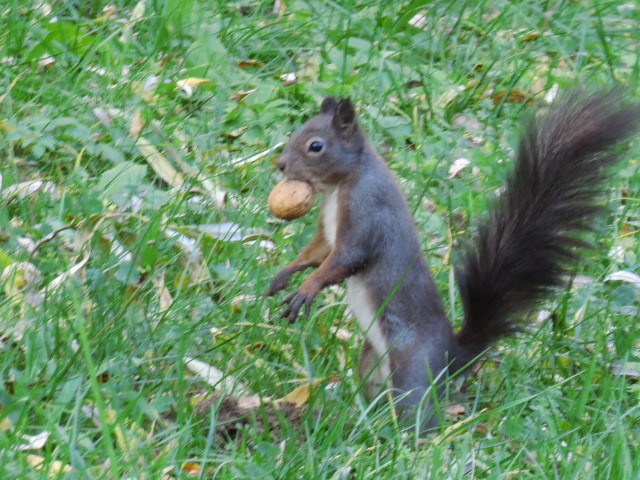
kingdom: Animalia
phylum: Chordata
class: Mammalia
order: Rodentia
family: Sciuridae
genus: Sciurus
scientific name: Sciurus vulgaris
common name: Eurasian red squirrel
